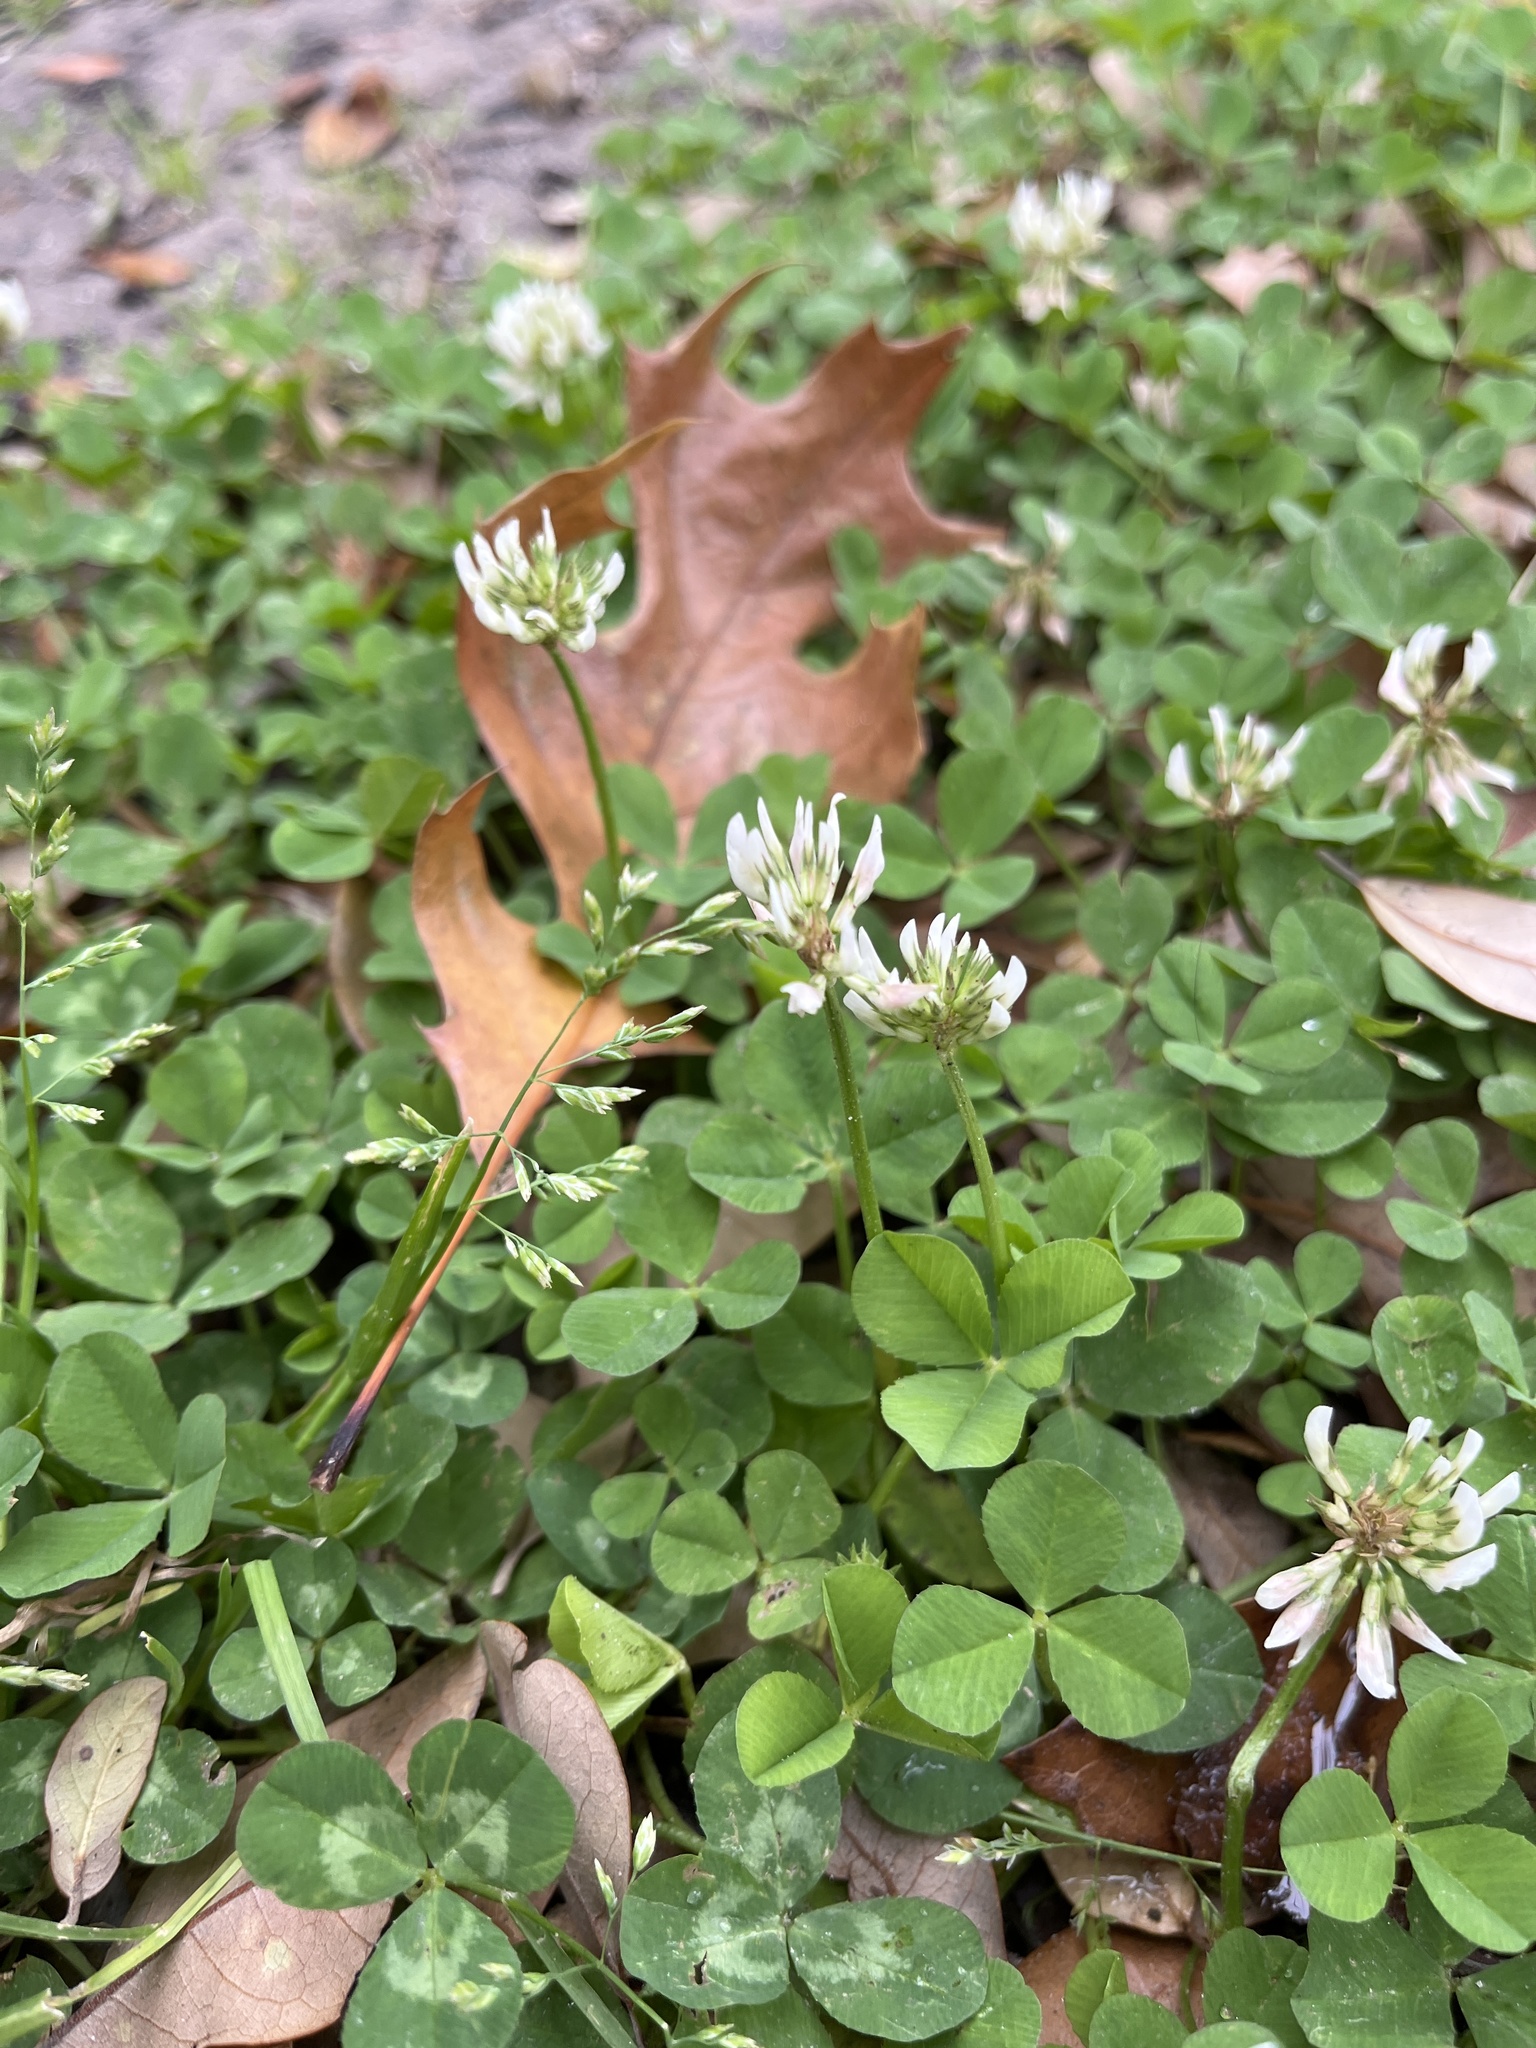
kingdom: Plantae
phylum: Tracheophyta
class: Magnoliopsida
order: Fabales
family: Fabaceae
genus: Trifolium
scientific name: Trifolium repens
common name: White clover
